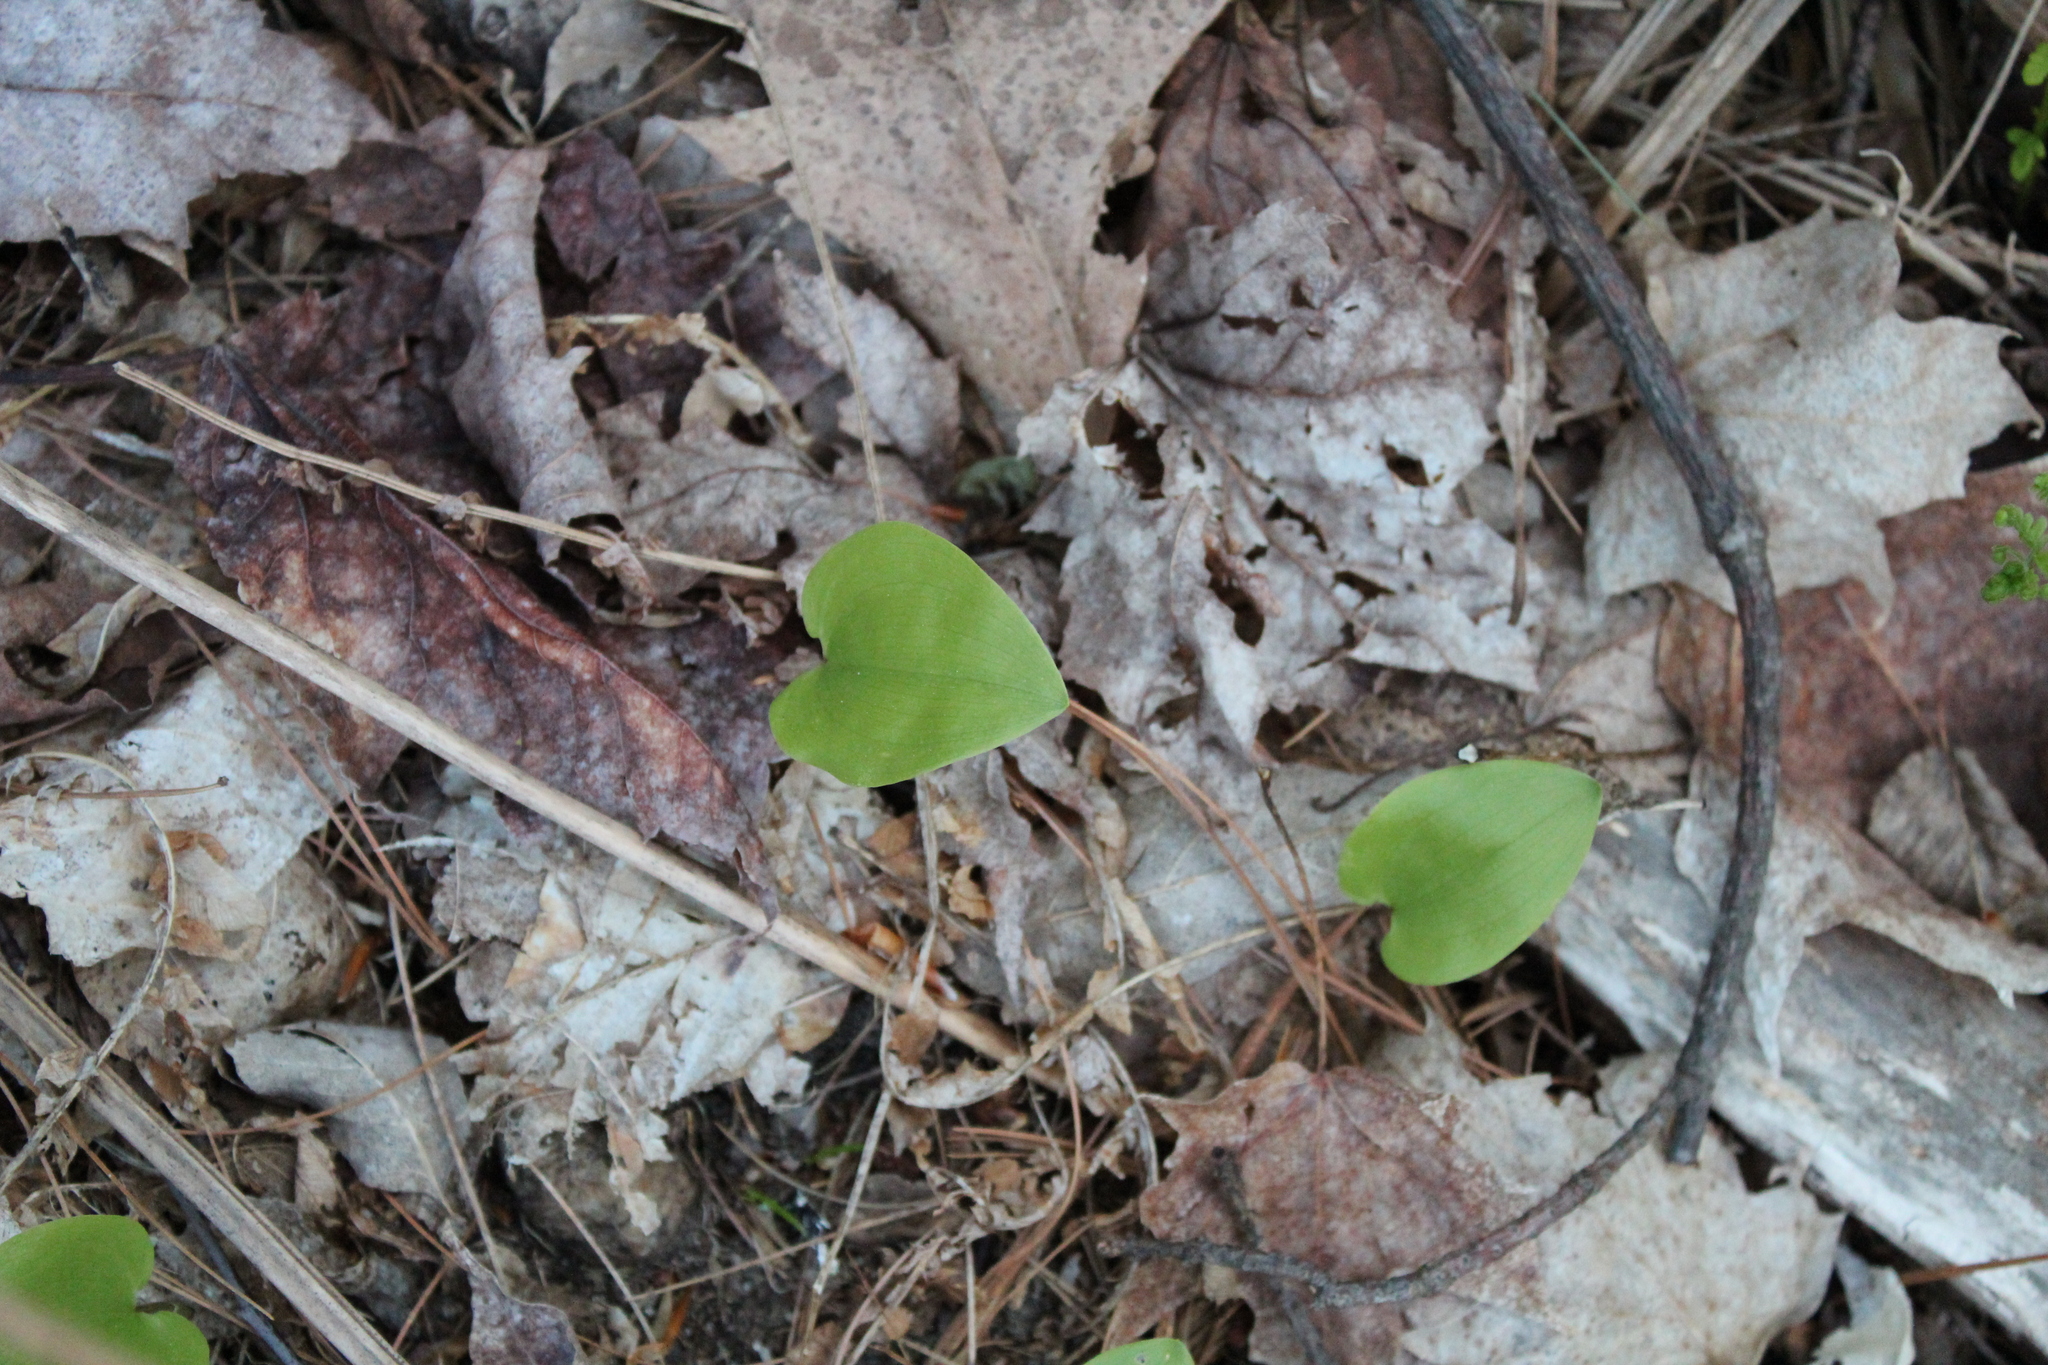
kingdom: Plantae
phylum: Tracheophyta
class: Liliopsida
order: Asparagales
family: Asparagaceae
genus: Maianthemum
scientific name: Maianthemum canadense
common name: False lily-of-the-valley
